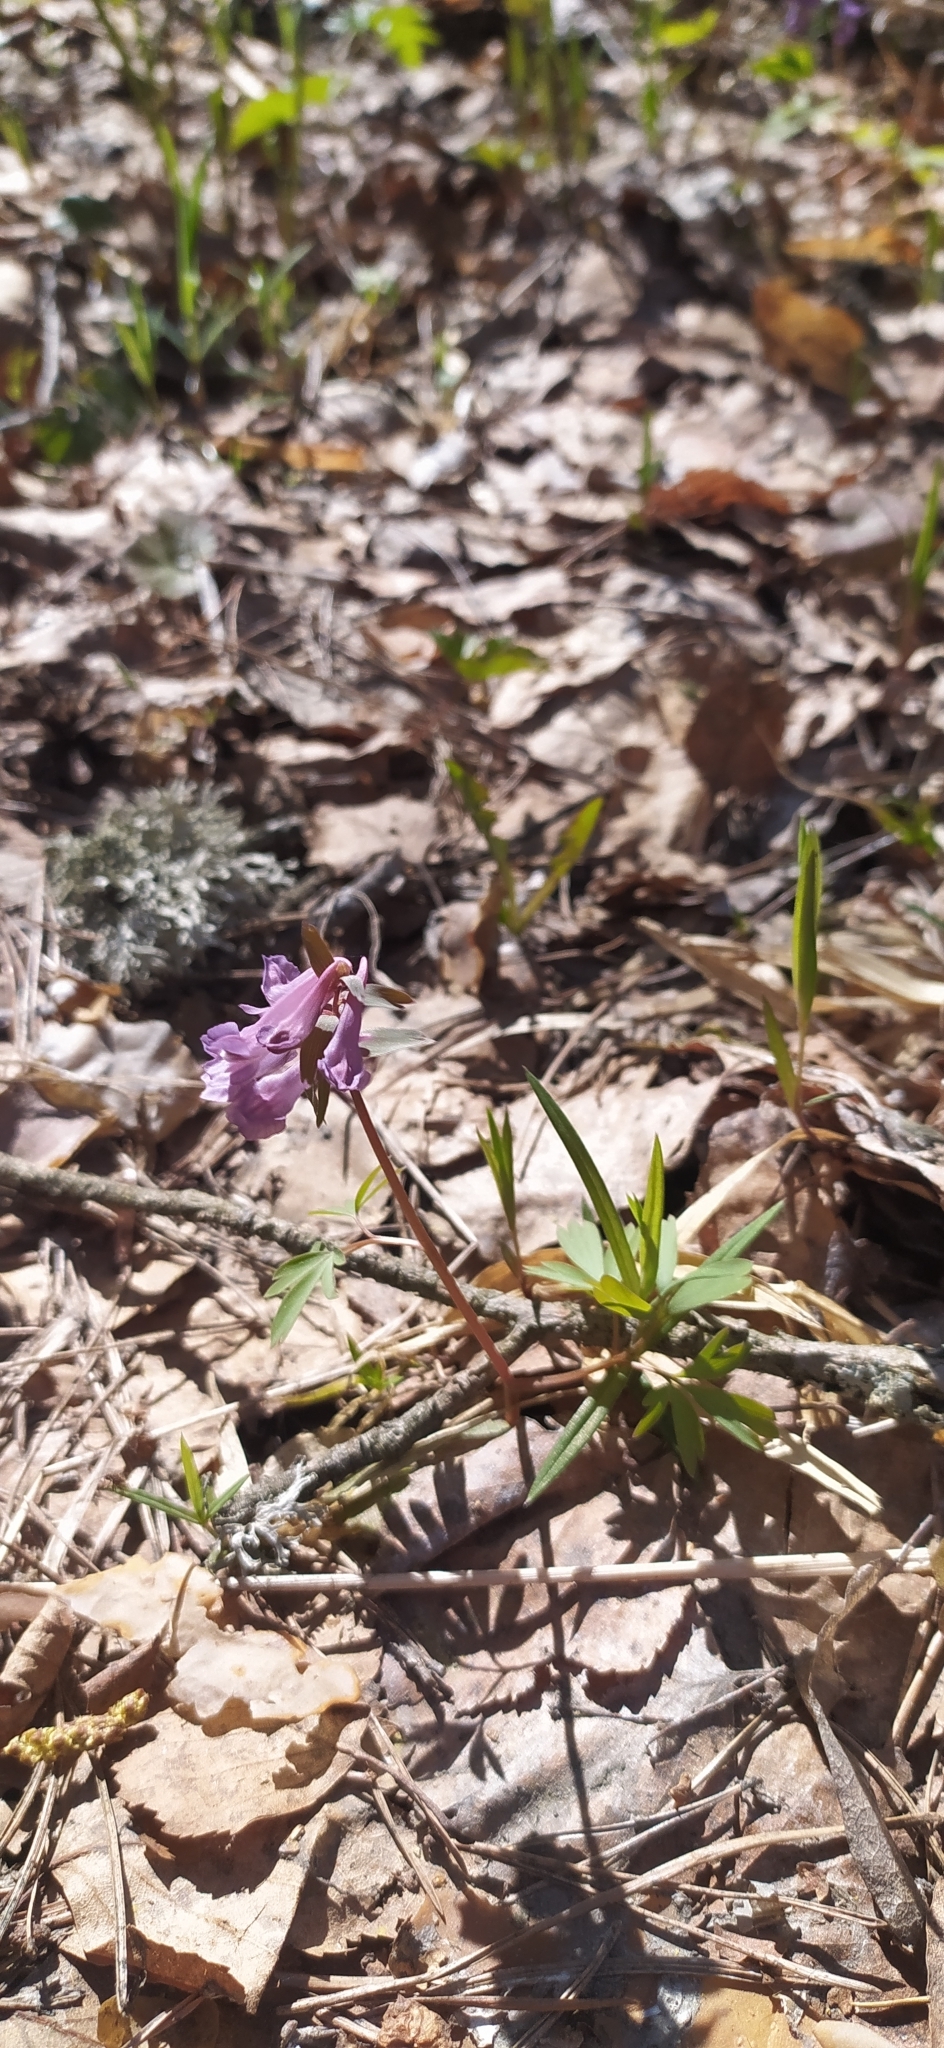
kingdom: Plantae
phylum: Tracheophyta
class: Magnoliopsida
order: Ranunculales
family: Papaveraceae
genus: Corydalis
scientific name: Corydalis solida
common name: Bird-in-a-bush
